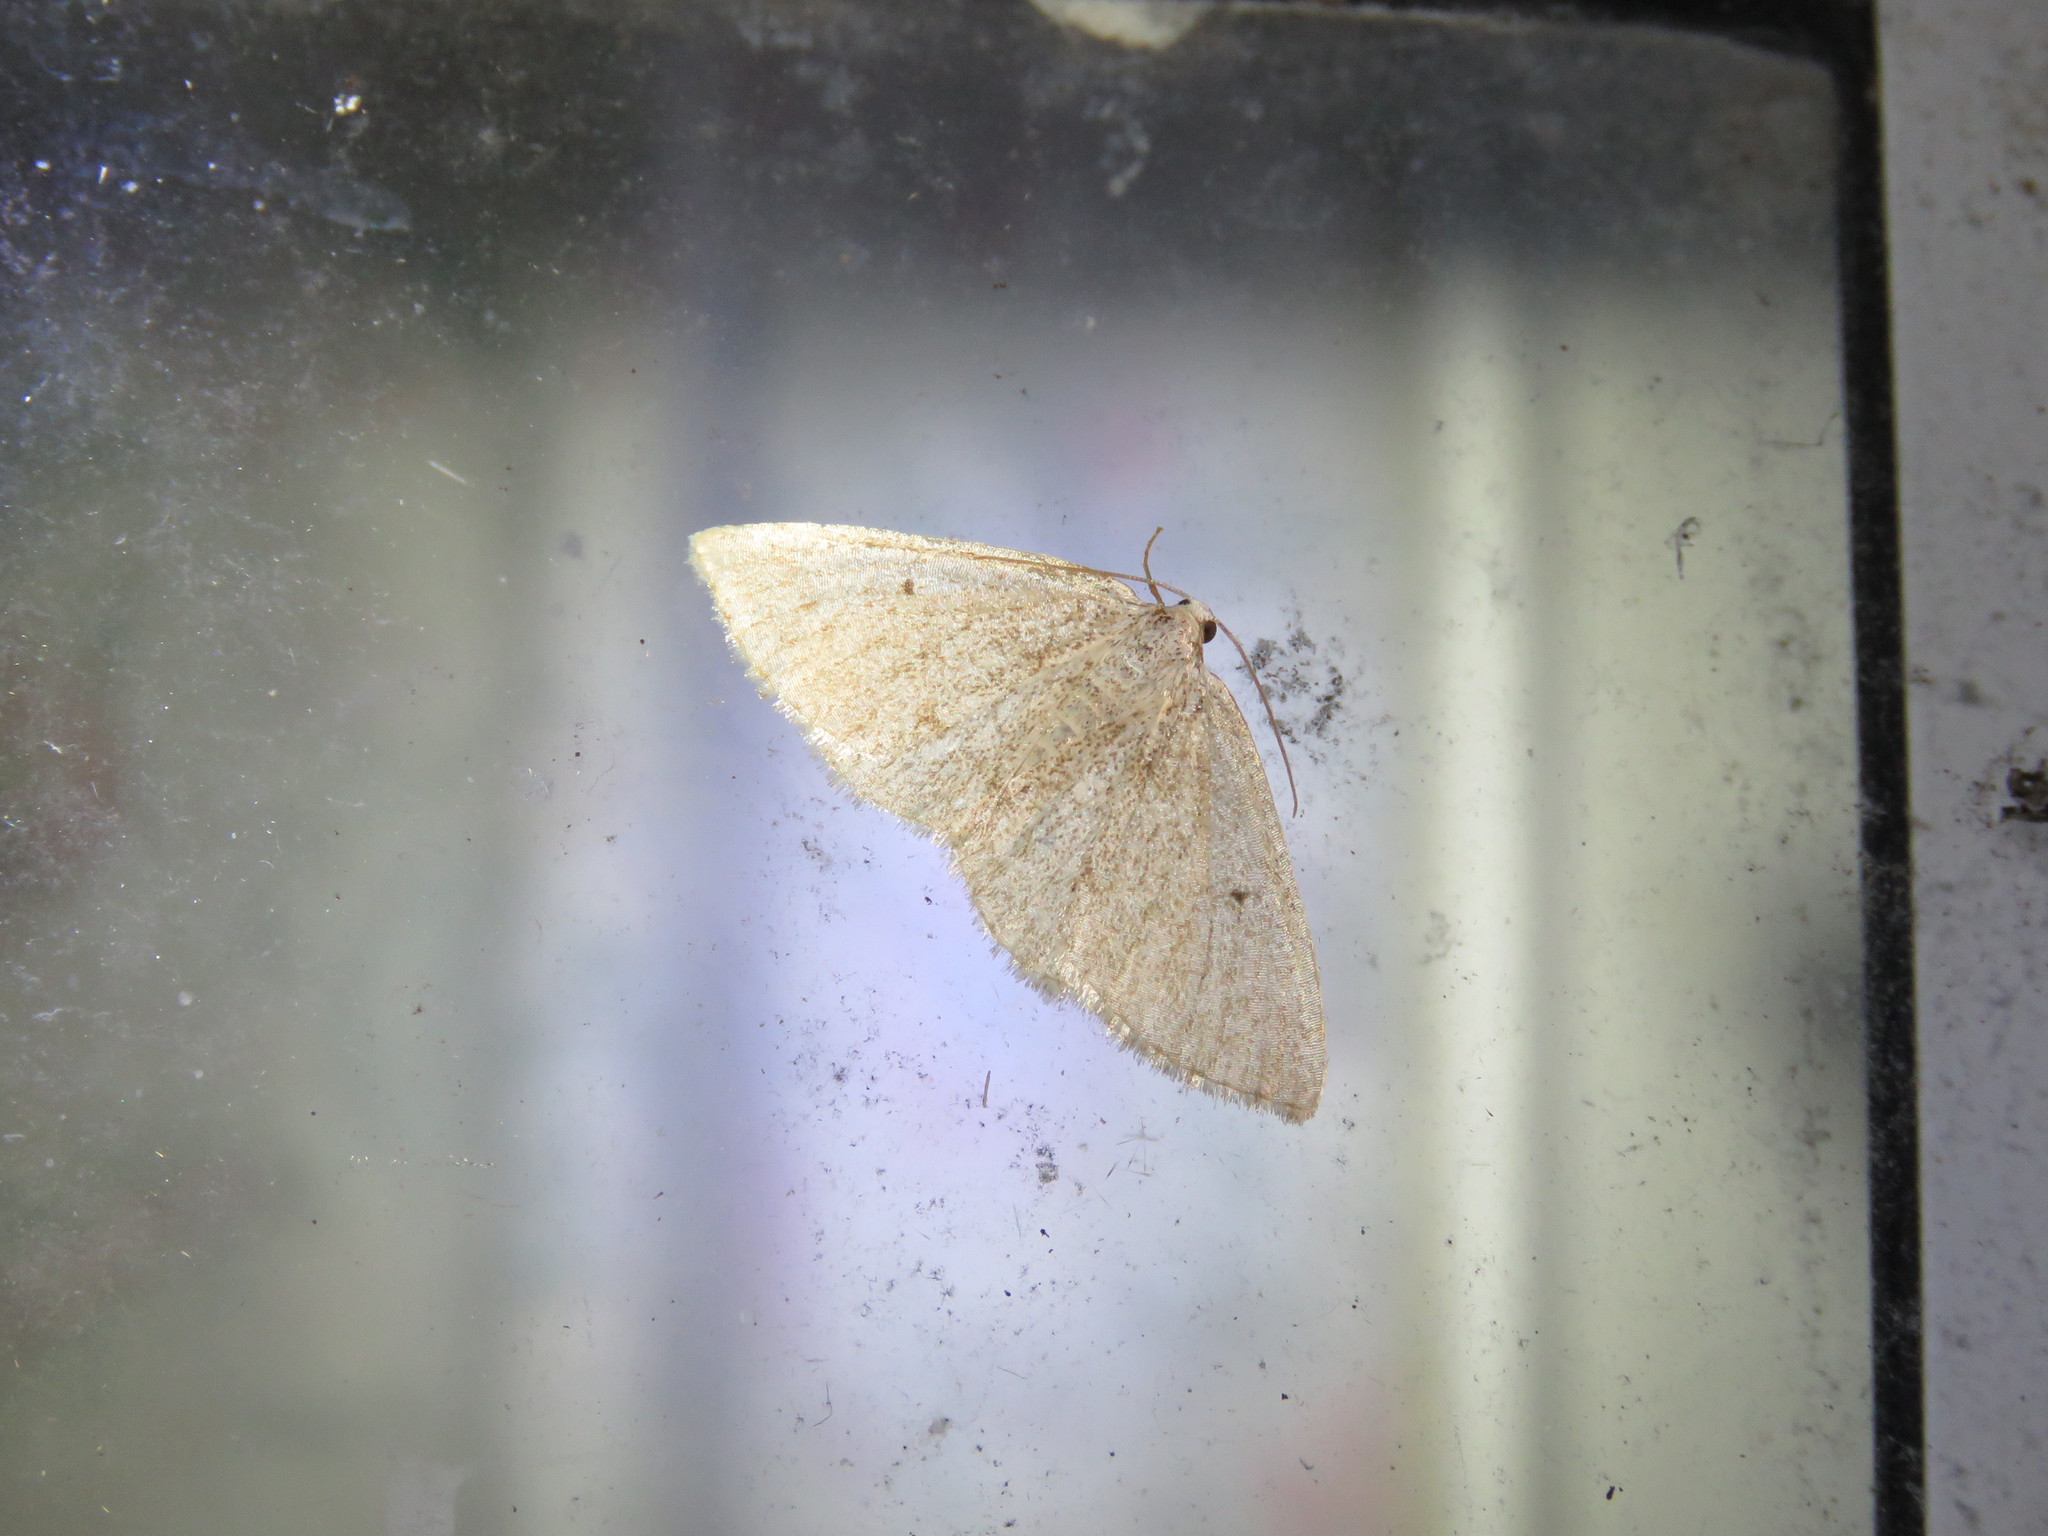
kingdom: Animalia
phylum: Arthropoda
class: Insecta
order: Lepidoptera
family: Geometridae
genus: Lomographa
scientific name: Lomographa glomeraria
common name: Gray spring moth
